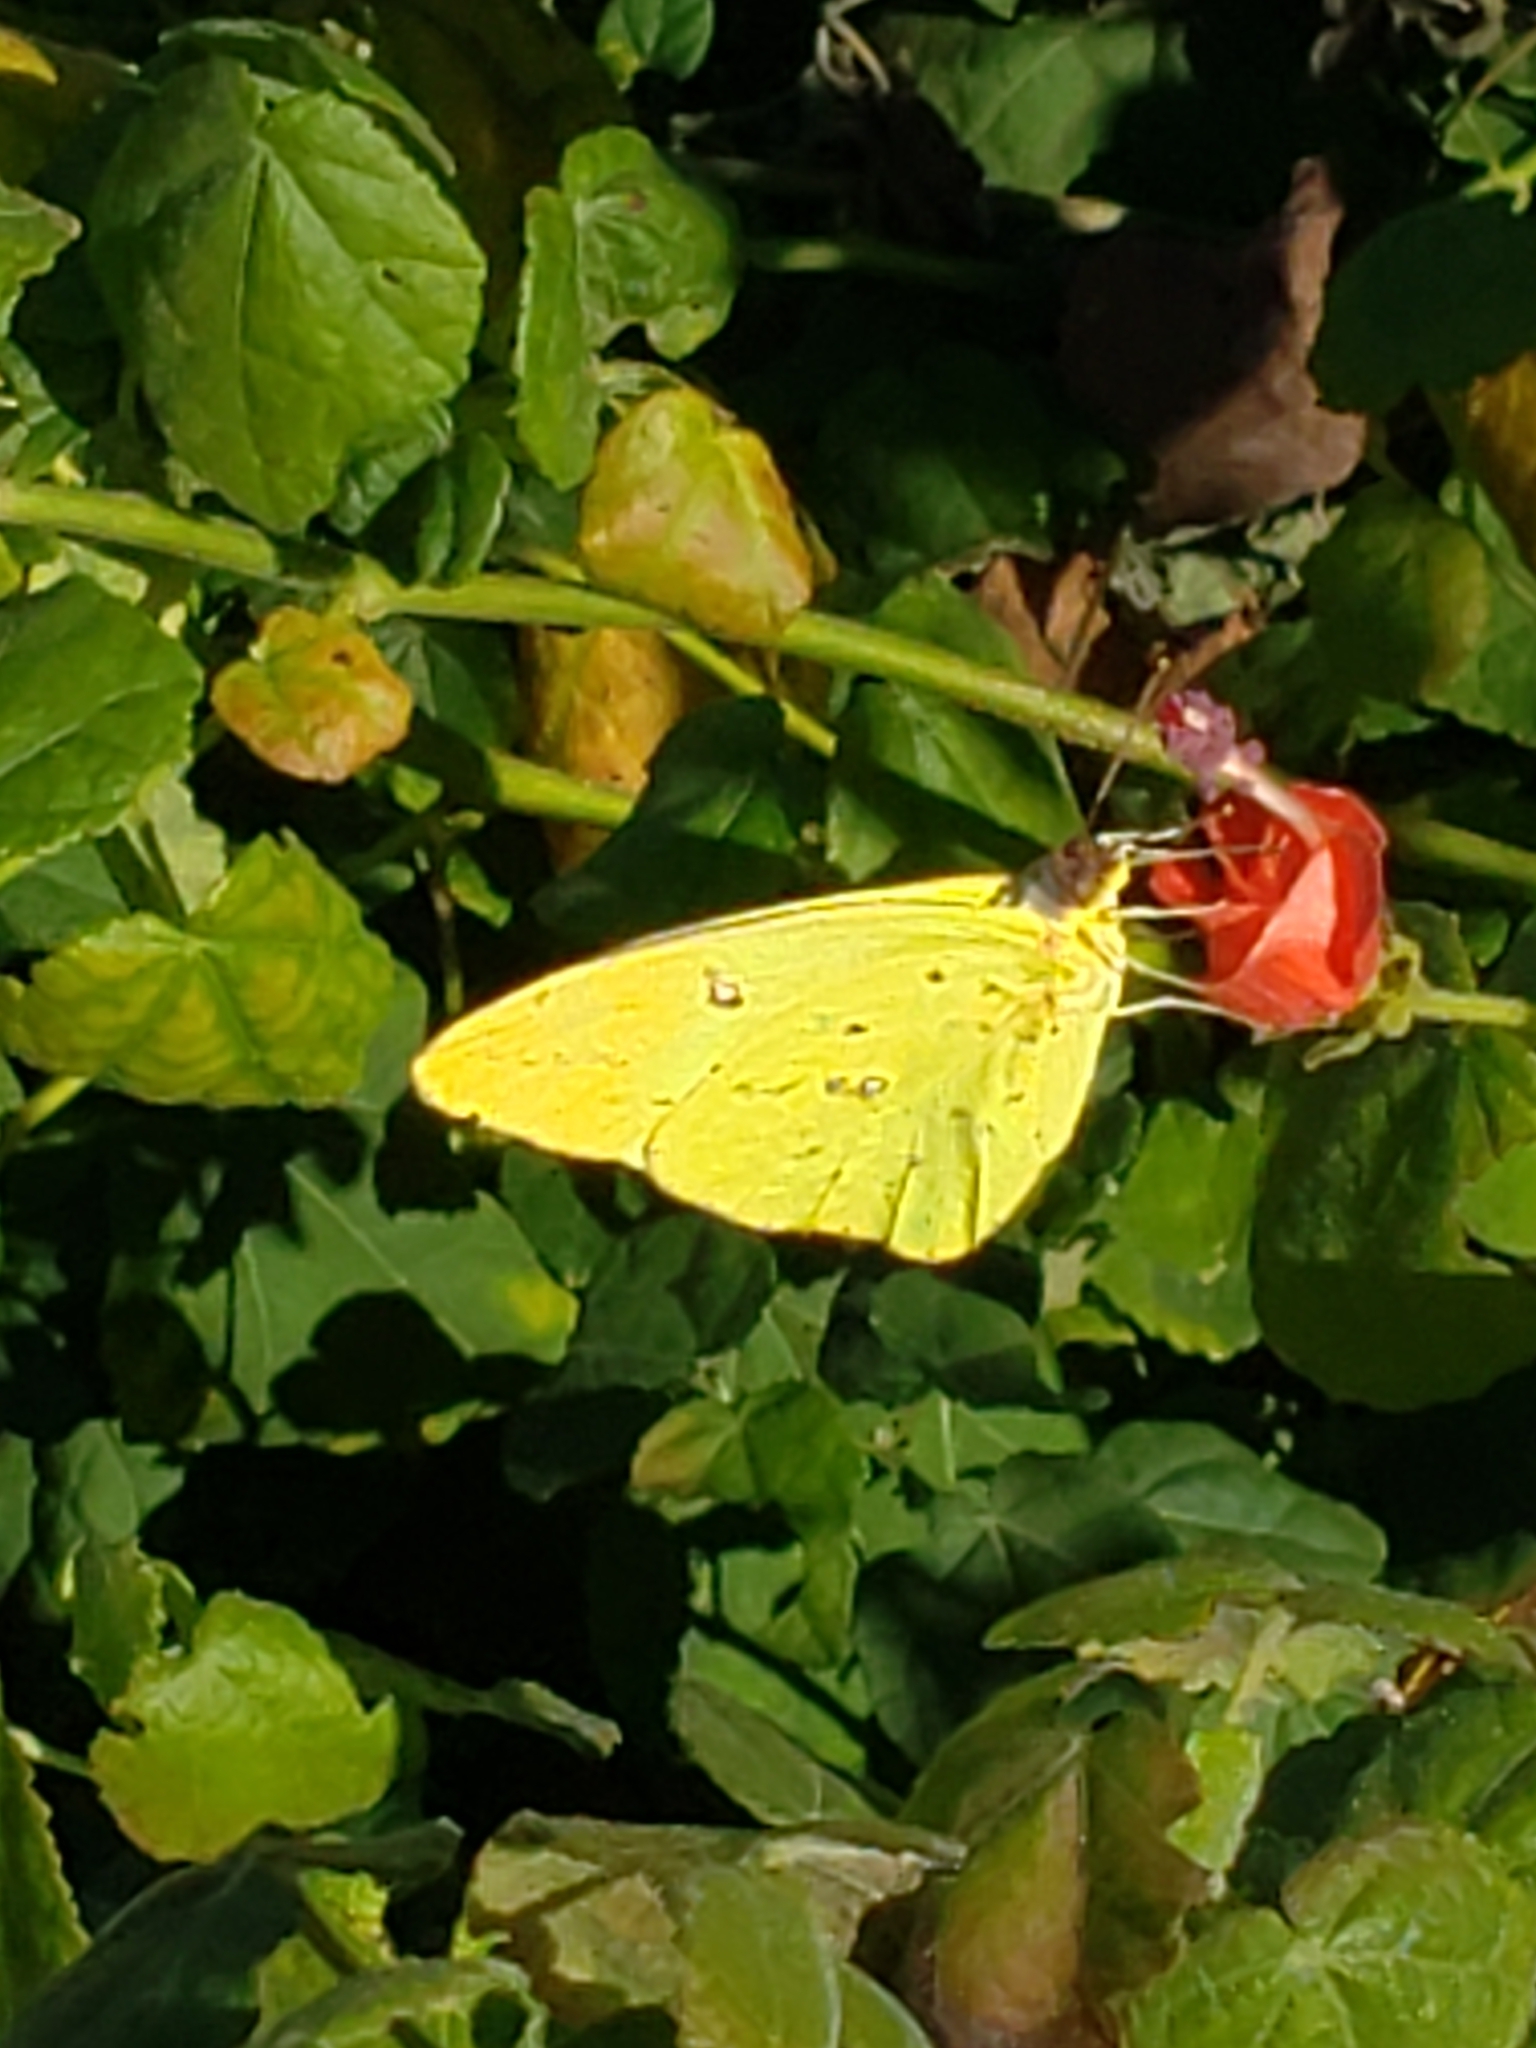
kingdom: Animalia
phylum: Arthropoda
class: Insecta
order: Lepidoptera
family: Pieridae
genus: Phoebis
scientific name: Phoebis sennae
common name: Cloudless sulphur
